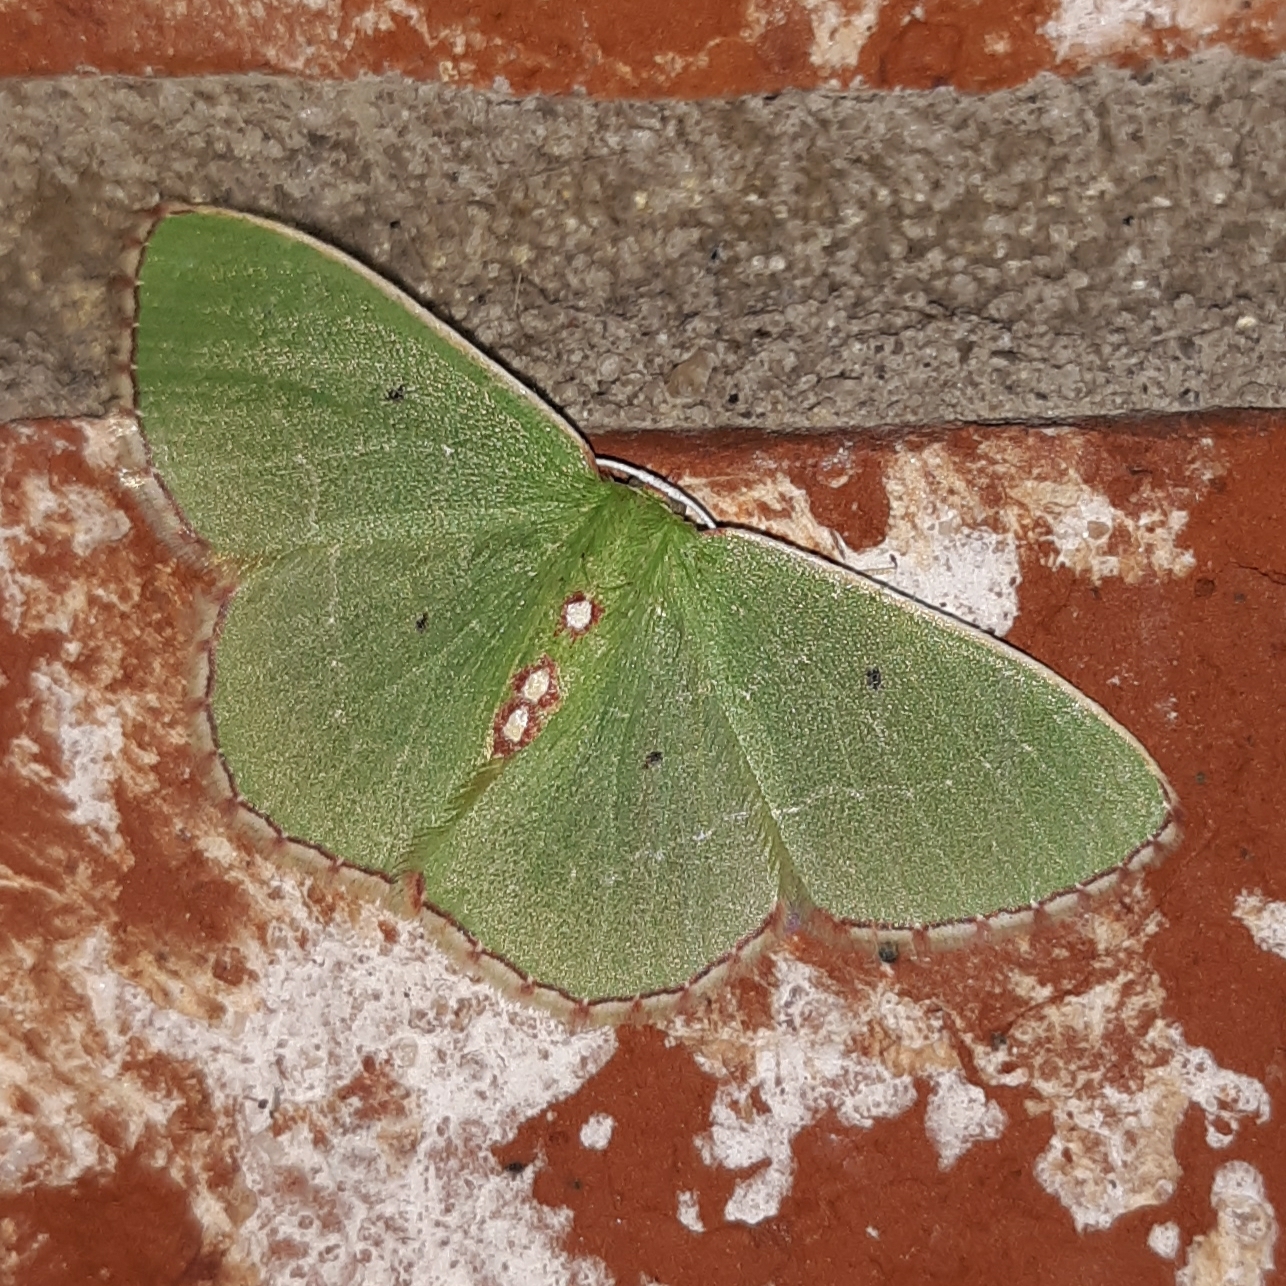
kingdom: Animalia
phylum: Arthropoda
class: Insecta
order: Lepidoptera
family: Geometridae
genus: Nemoria
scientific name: Nemoria lixaria
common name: Red-bordered emerald
